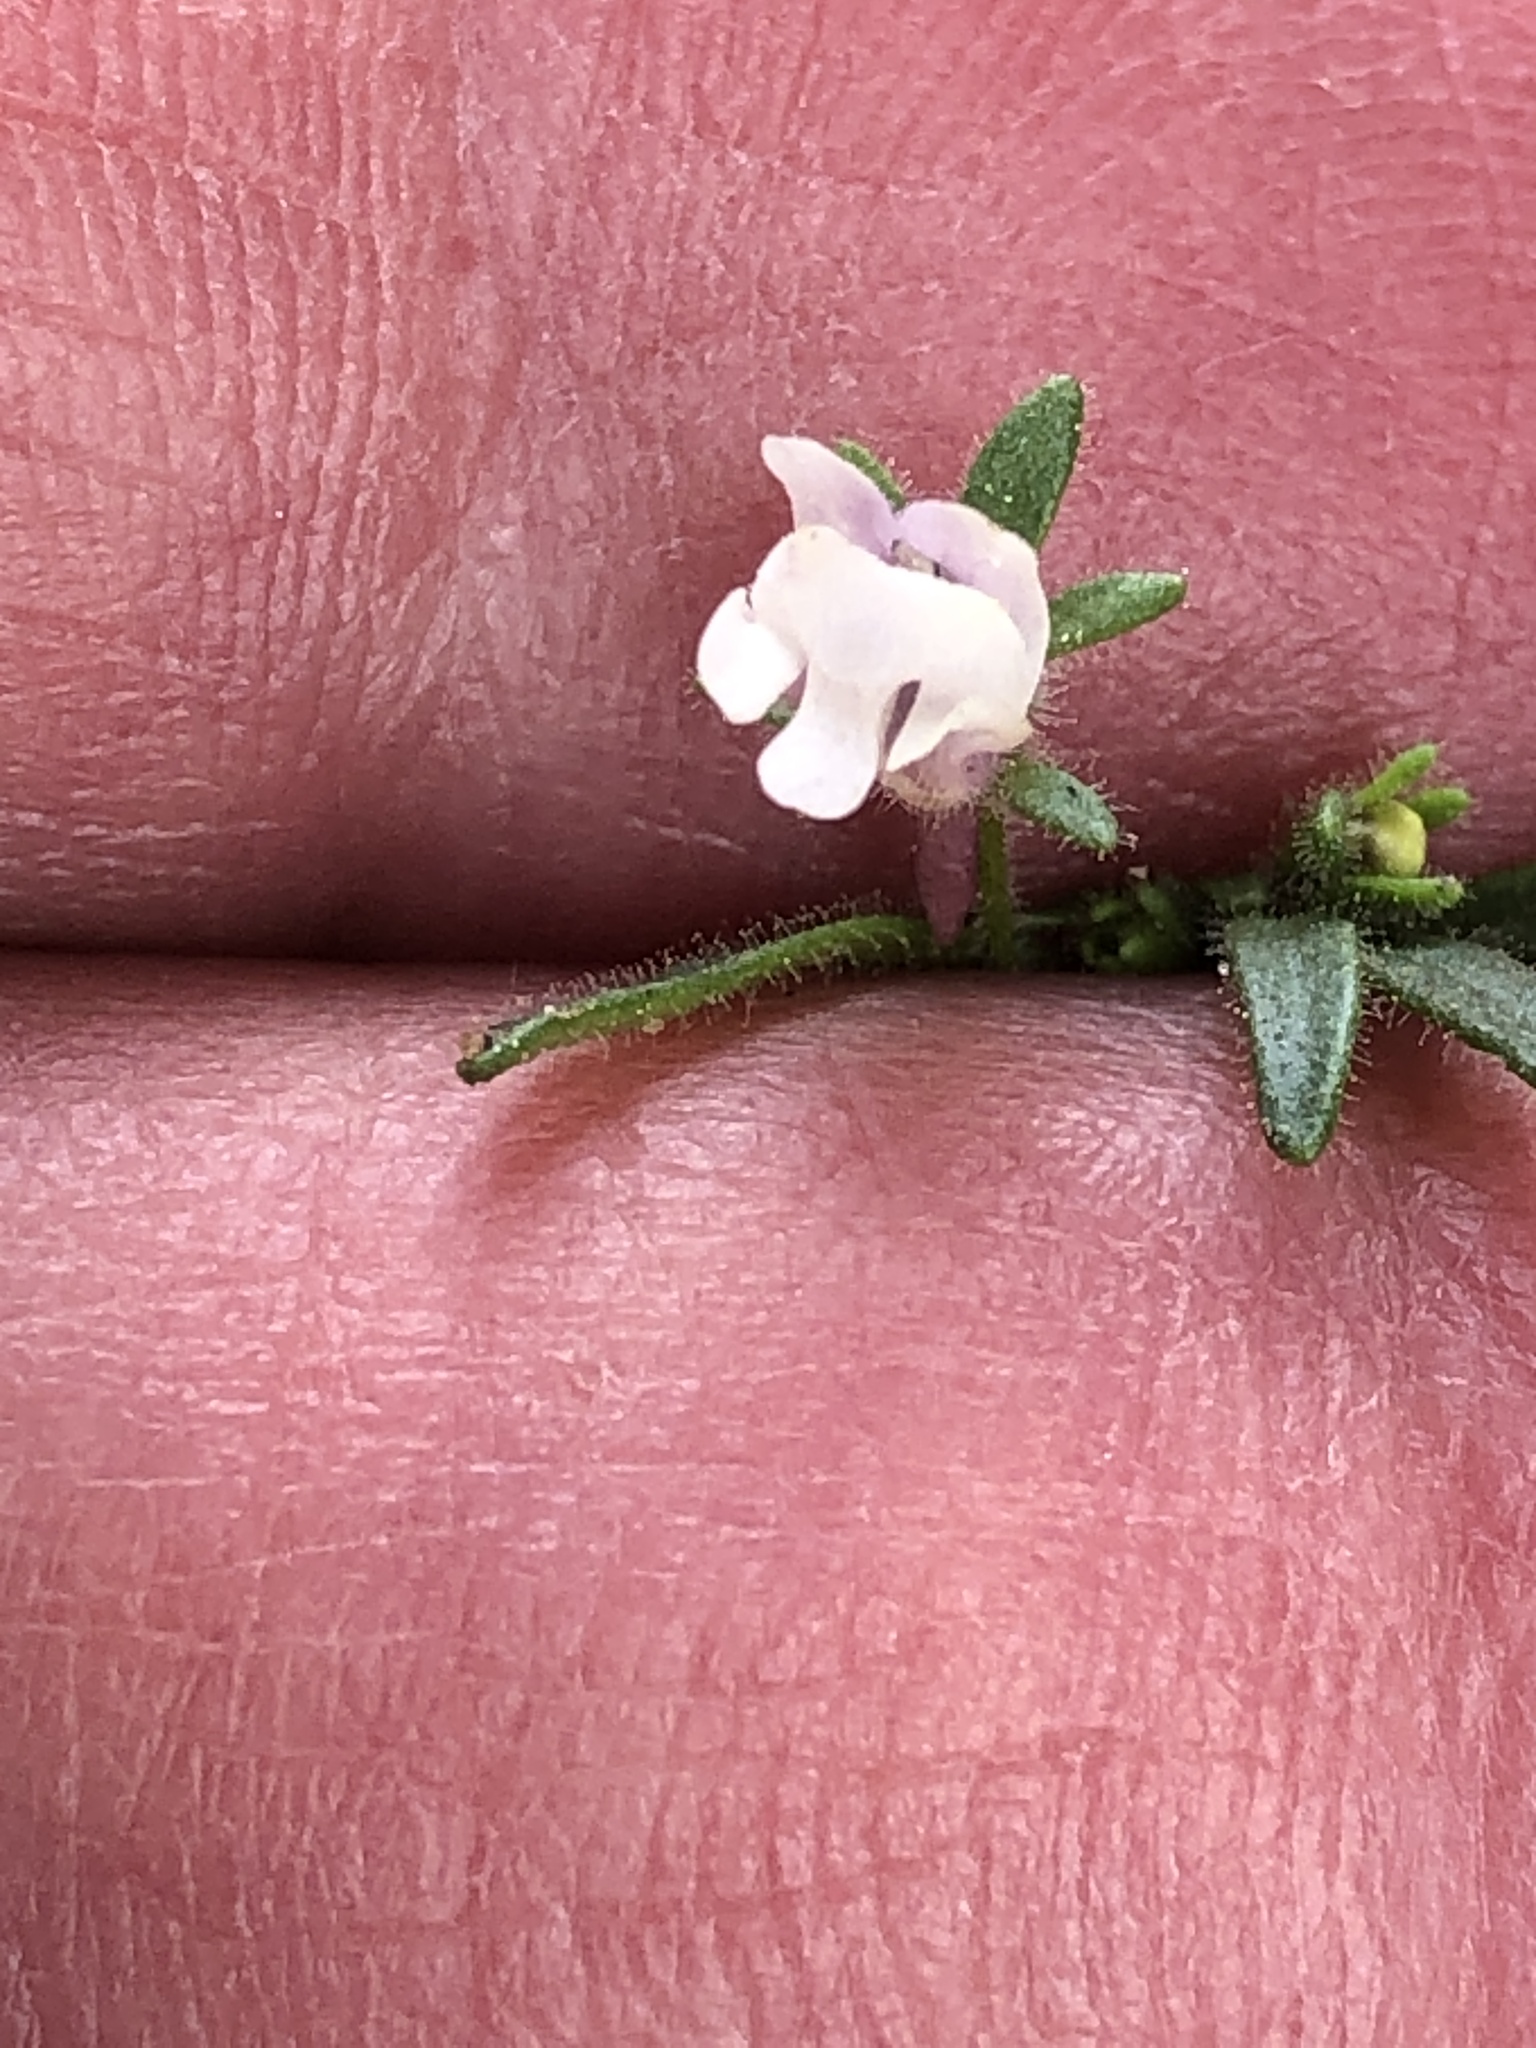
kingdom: Plantae
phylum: Tracheophyta
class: Magnoliopsida
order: Lamiales
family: Plantaginaceae
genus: Chaenorhinum
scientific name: Chaenorhinum minus
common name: Dwarf snapdragon
